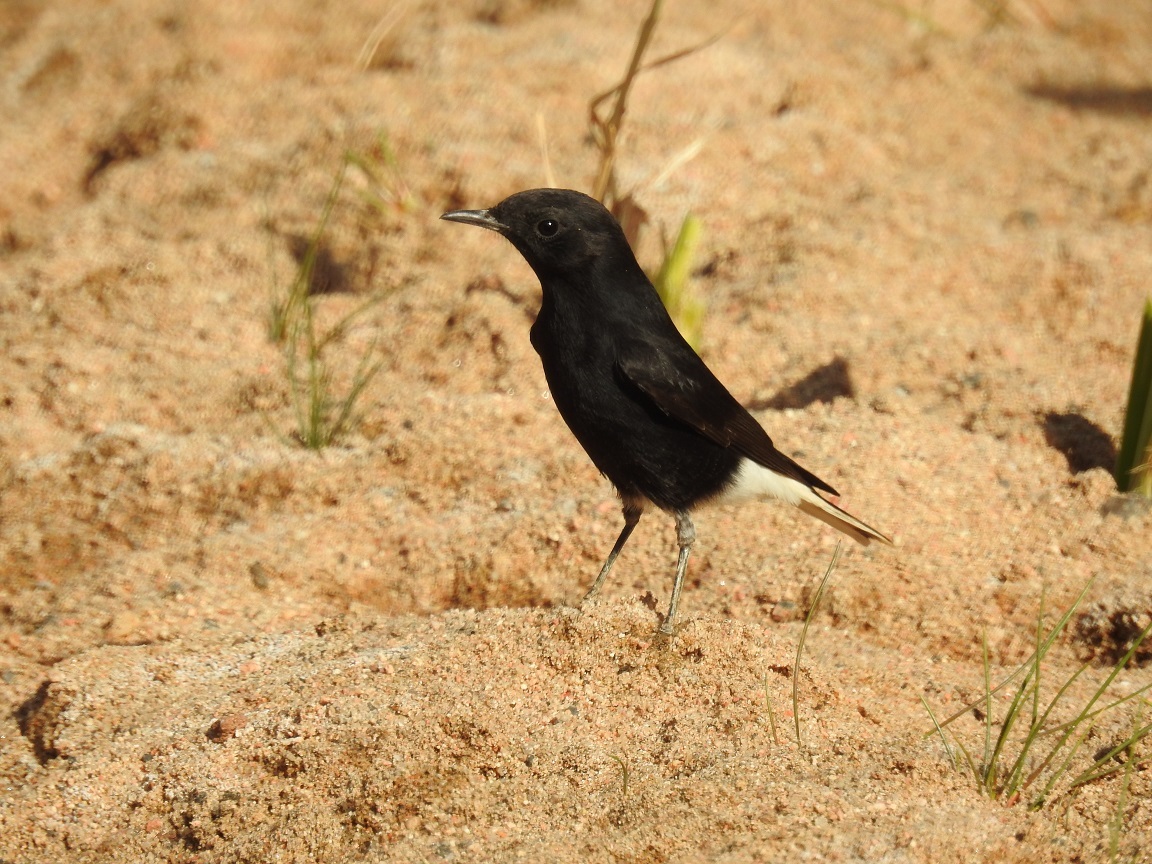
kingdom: Animalia
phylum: Chordata
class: Aves
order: Passeriformes
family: Muscicapidae
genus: Oenanthe
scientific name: Oenanthe leucopyga
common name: White-crowned wheatear
